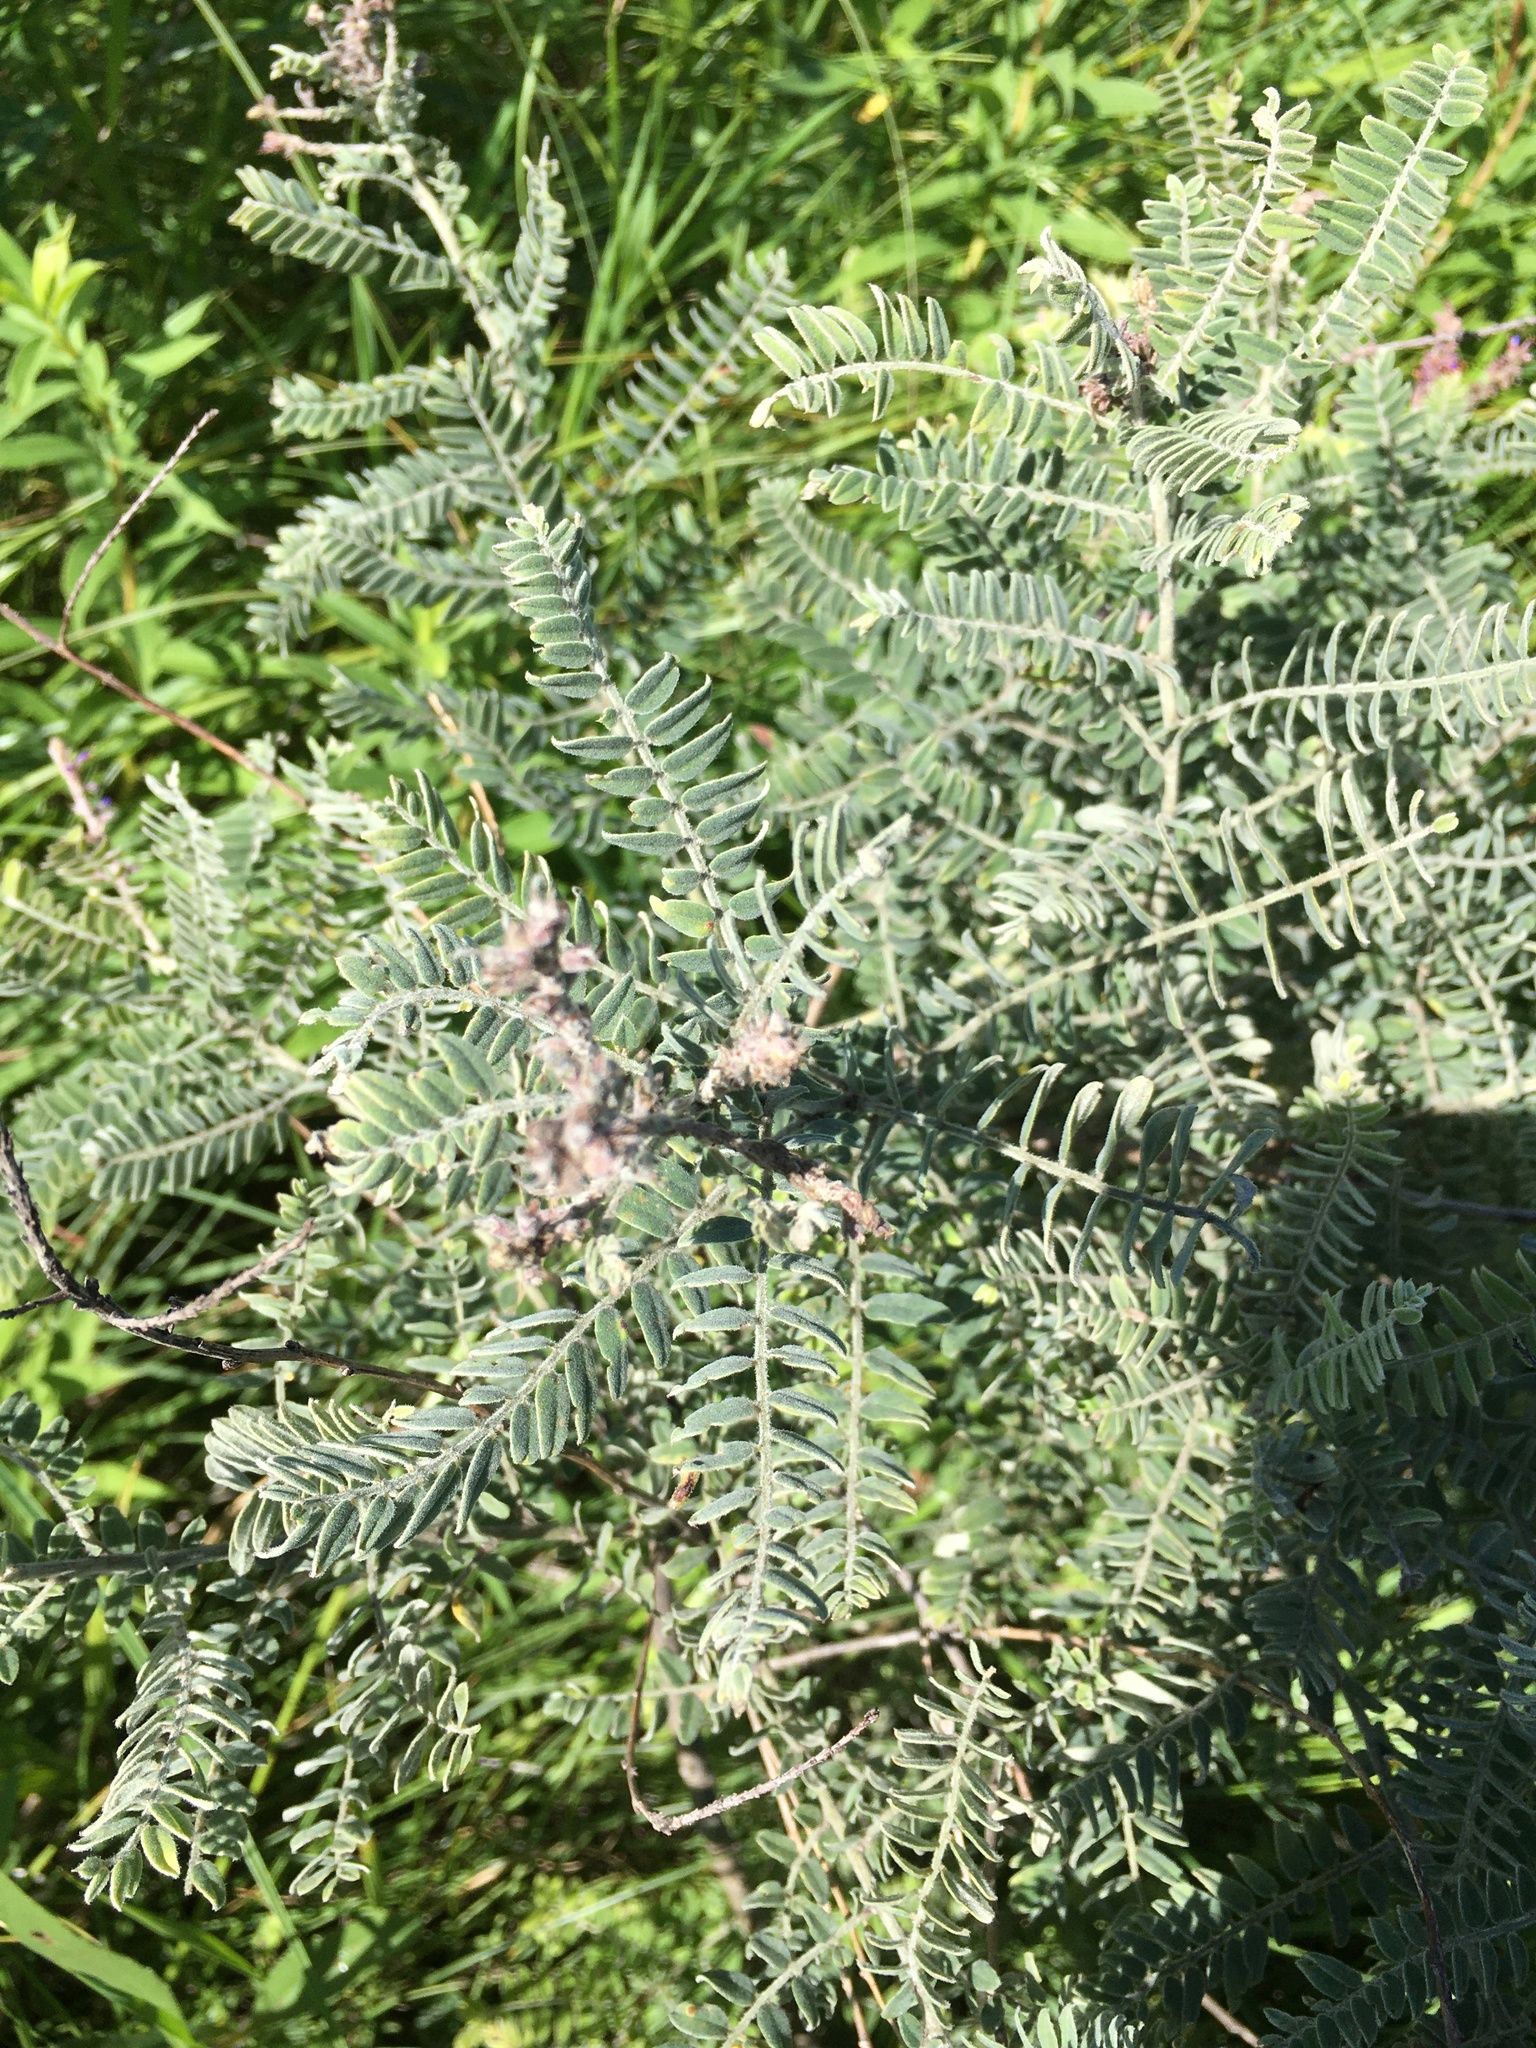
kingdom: Plantae
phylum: Tracheophyta
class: Magnoliopsida
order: Fabales
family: Fabaceae
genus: Amorpha
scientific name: Amorpha canescens
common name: Leadplant
